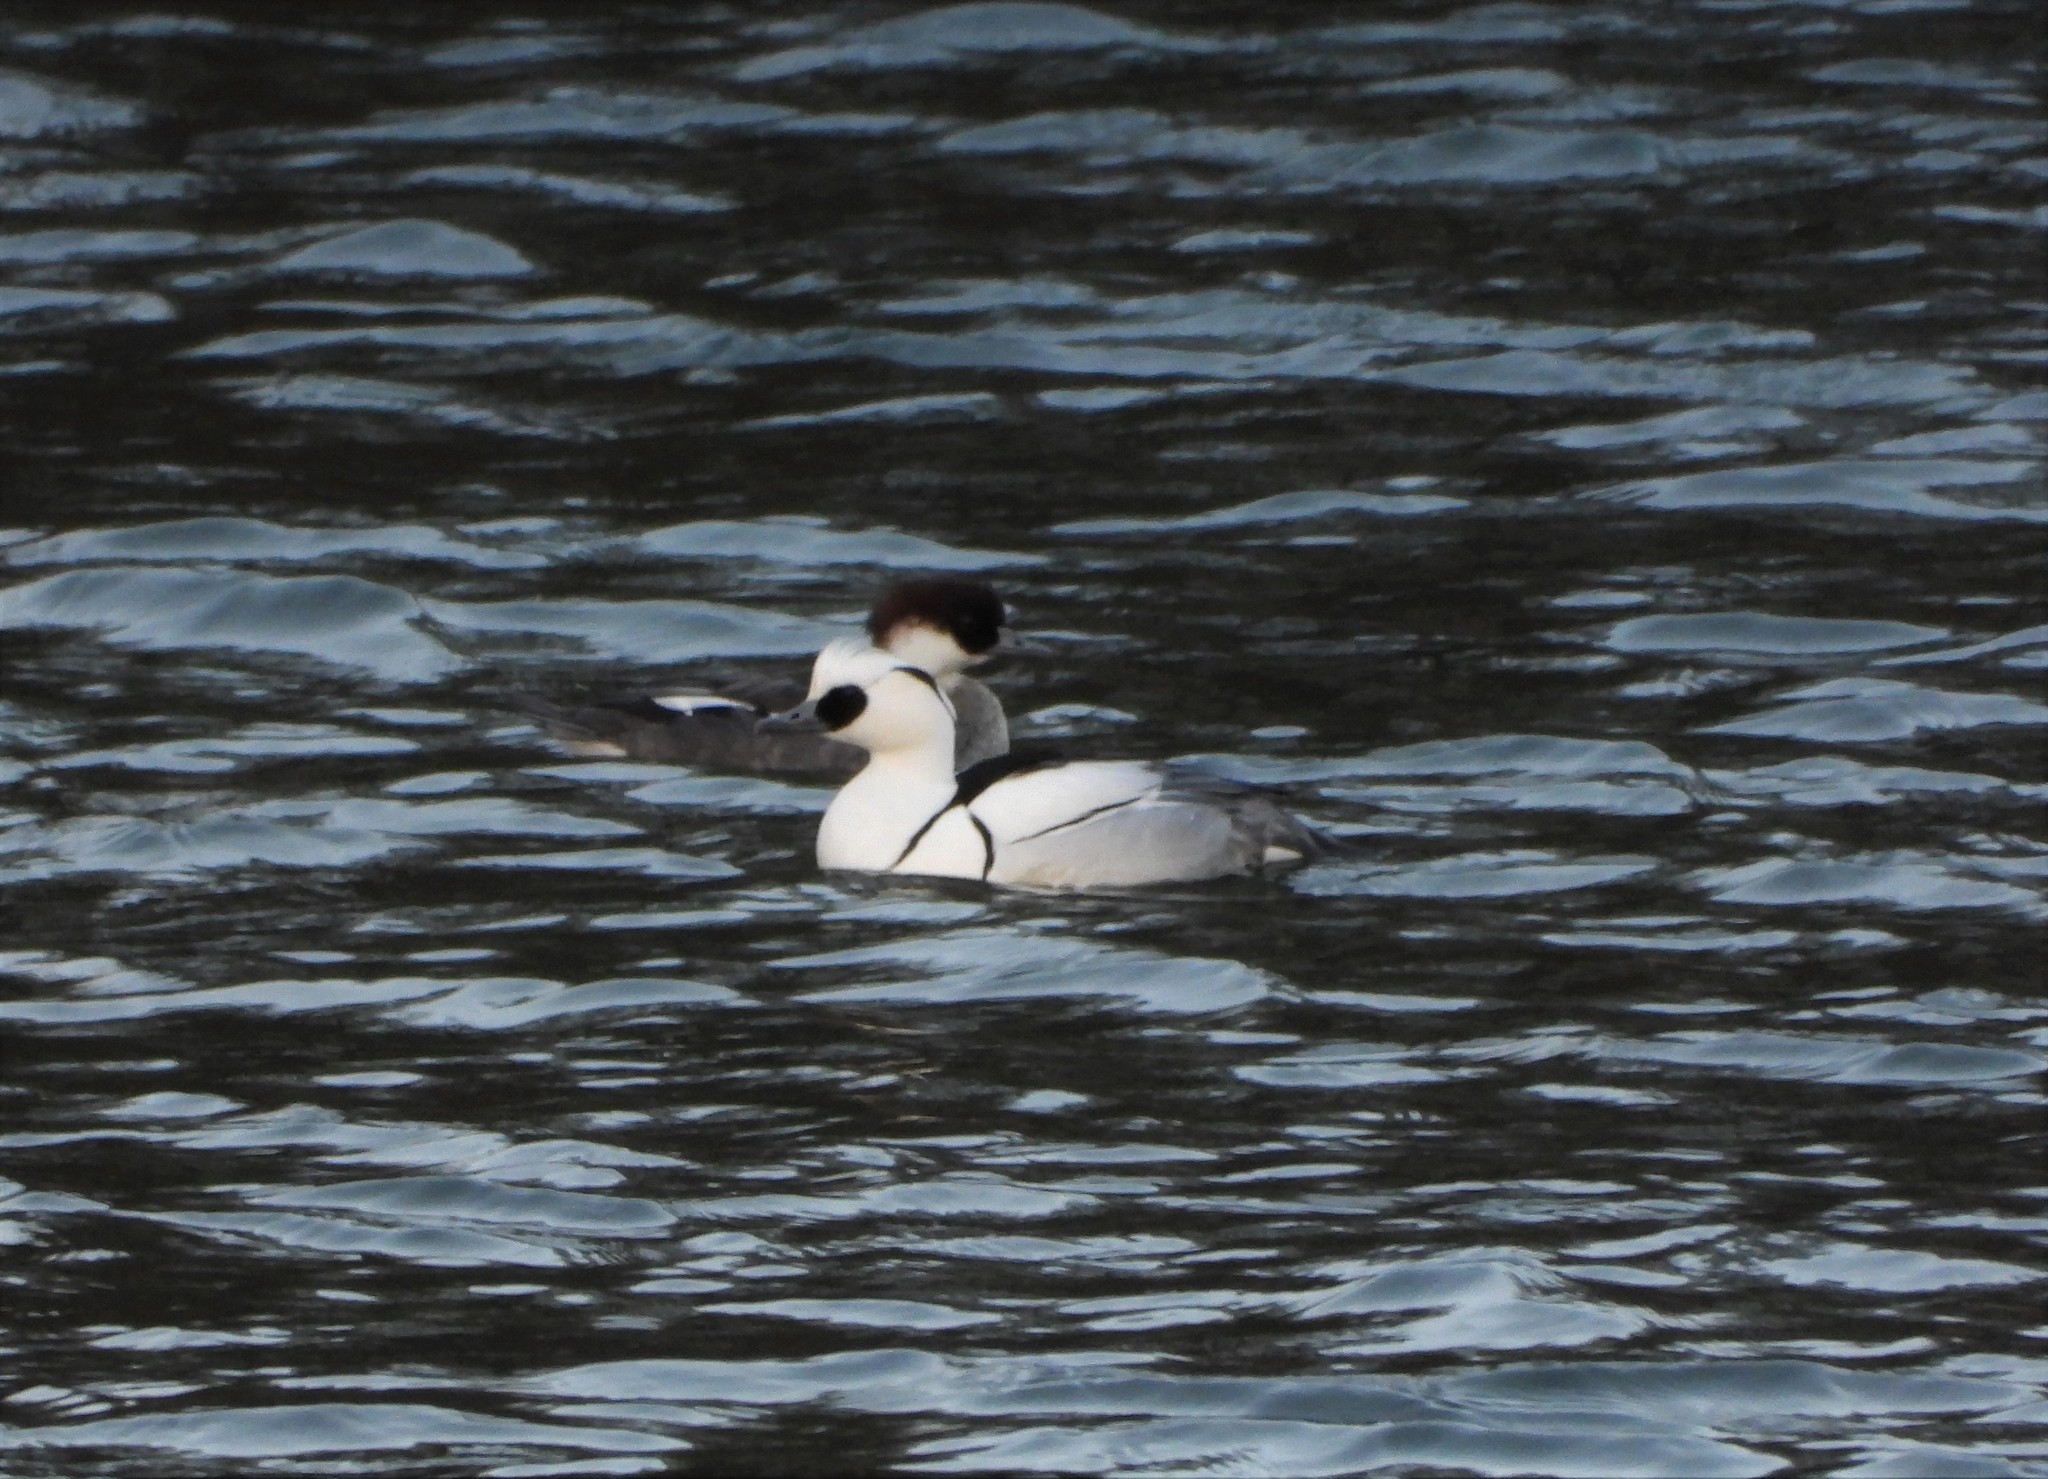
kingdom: Animalia
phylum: Chordata
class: Aves
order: Anseriformes
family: Anatidae
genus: Mergellus
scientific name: Mergellus albellus
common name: Smew
